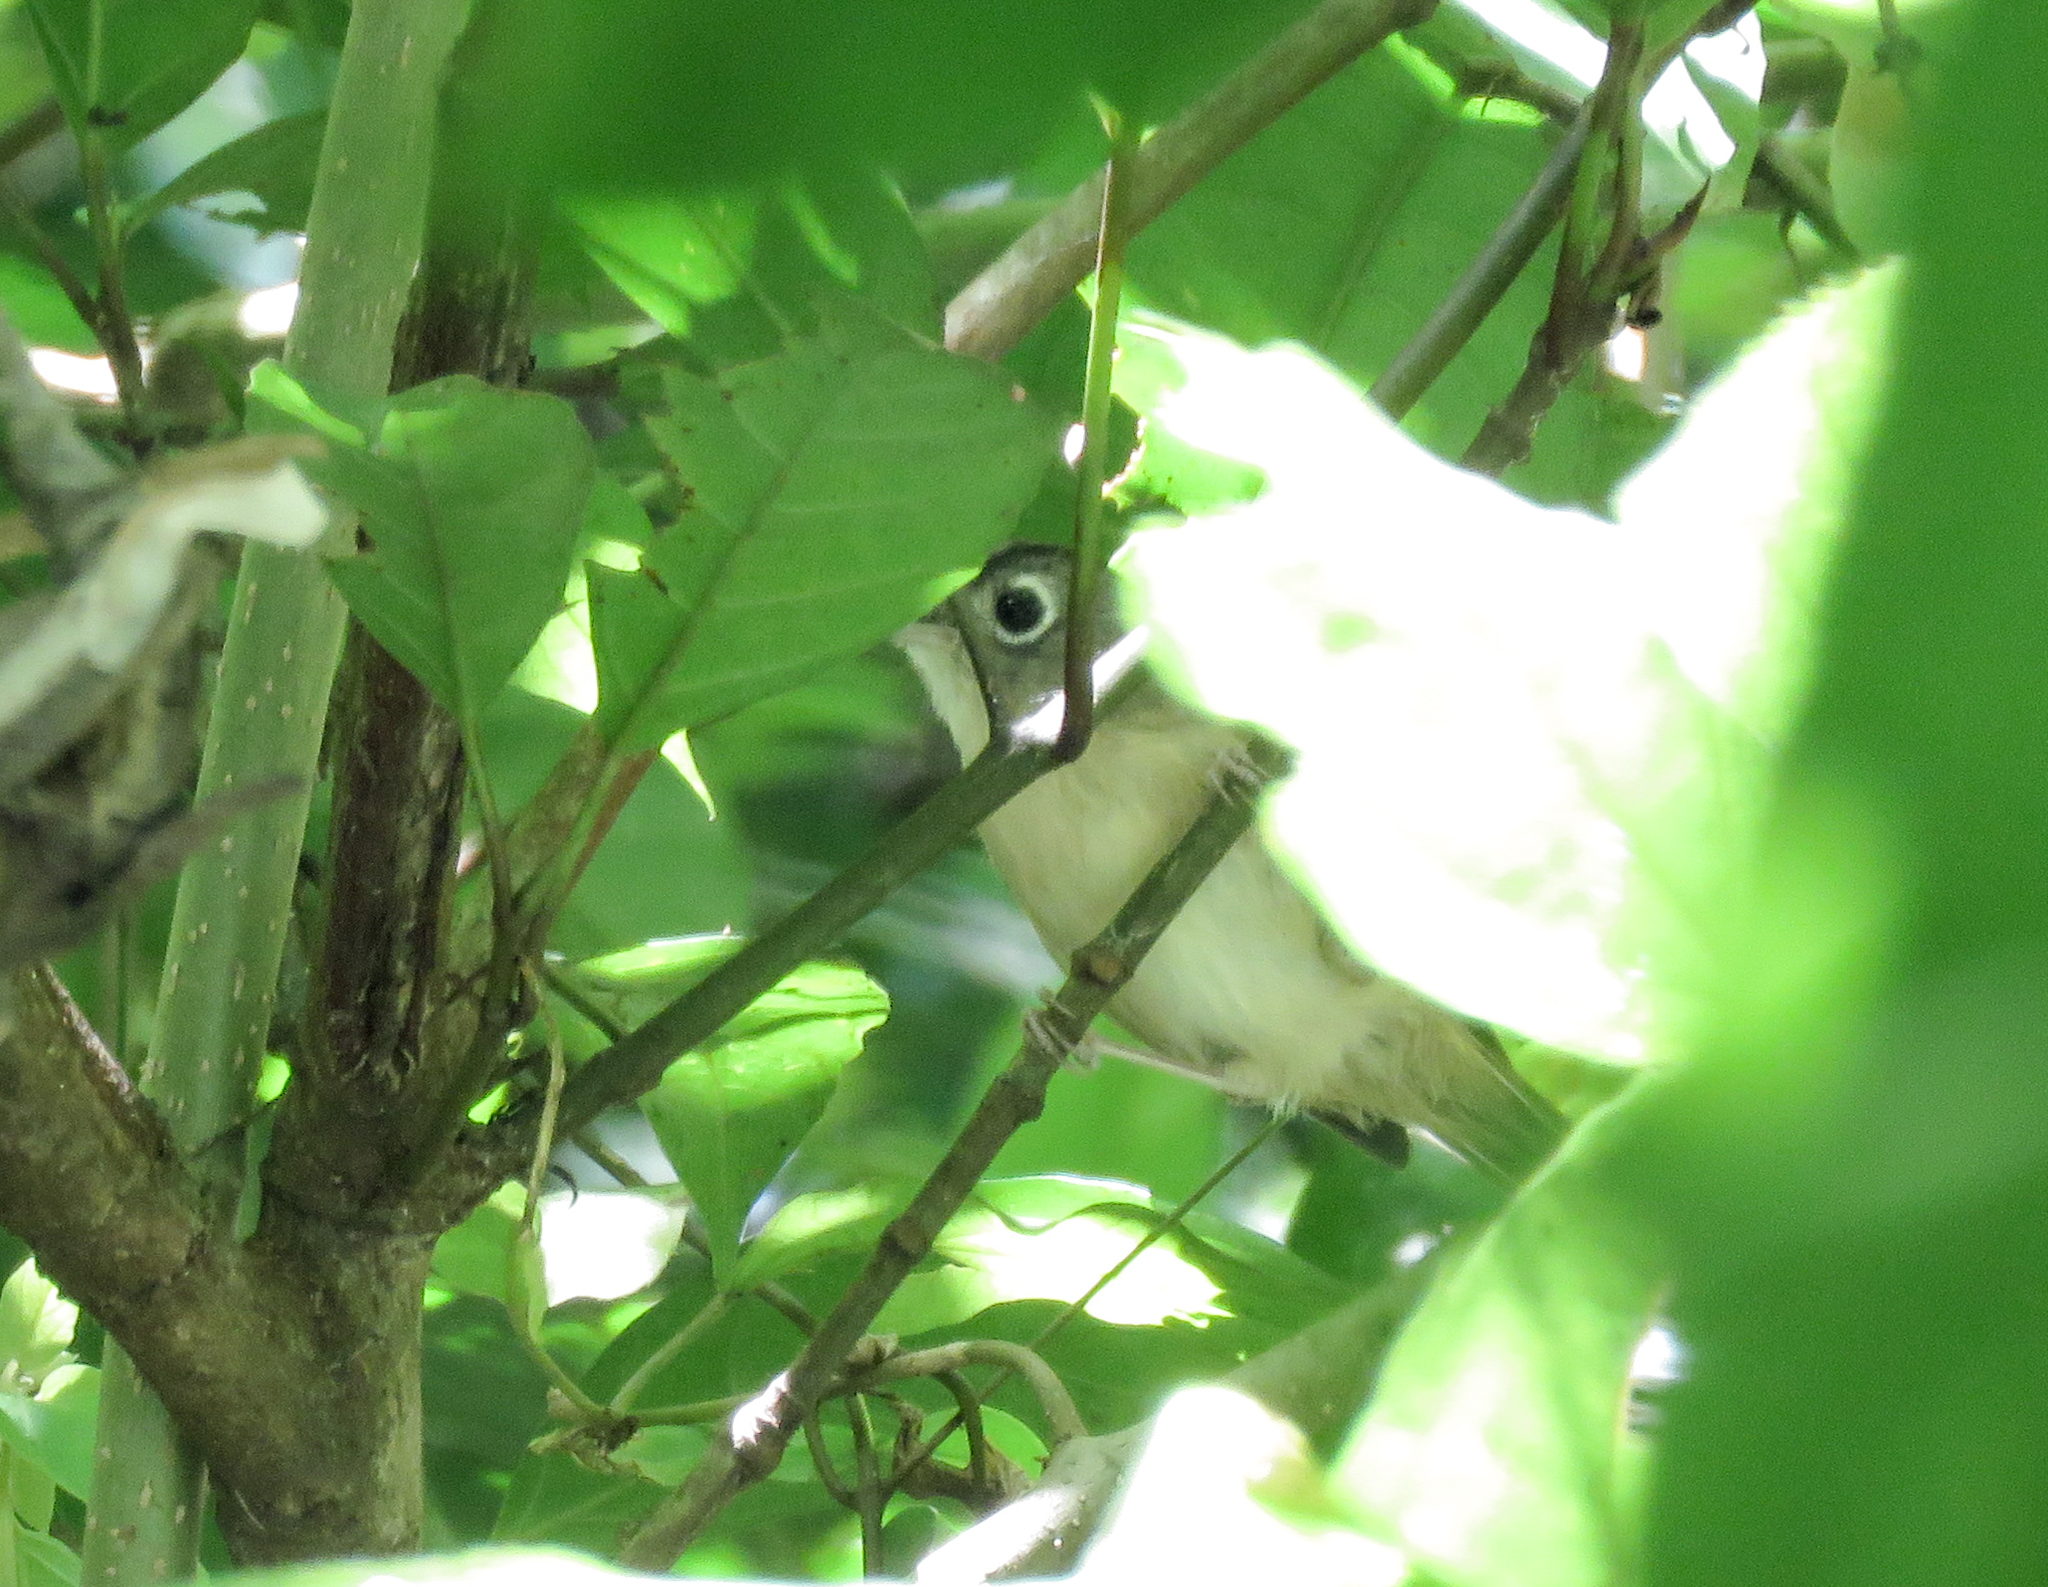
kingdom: Animalia
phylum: Chordata
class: Aves
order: Passeriformes
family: Pellorneidae
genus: Alcippe
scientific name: Alcippe nipalensis
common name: Nepal fulvetta
